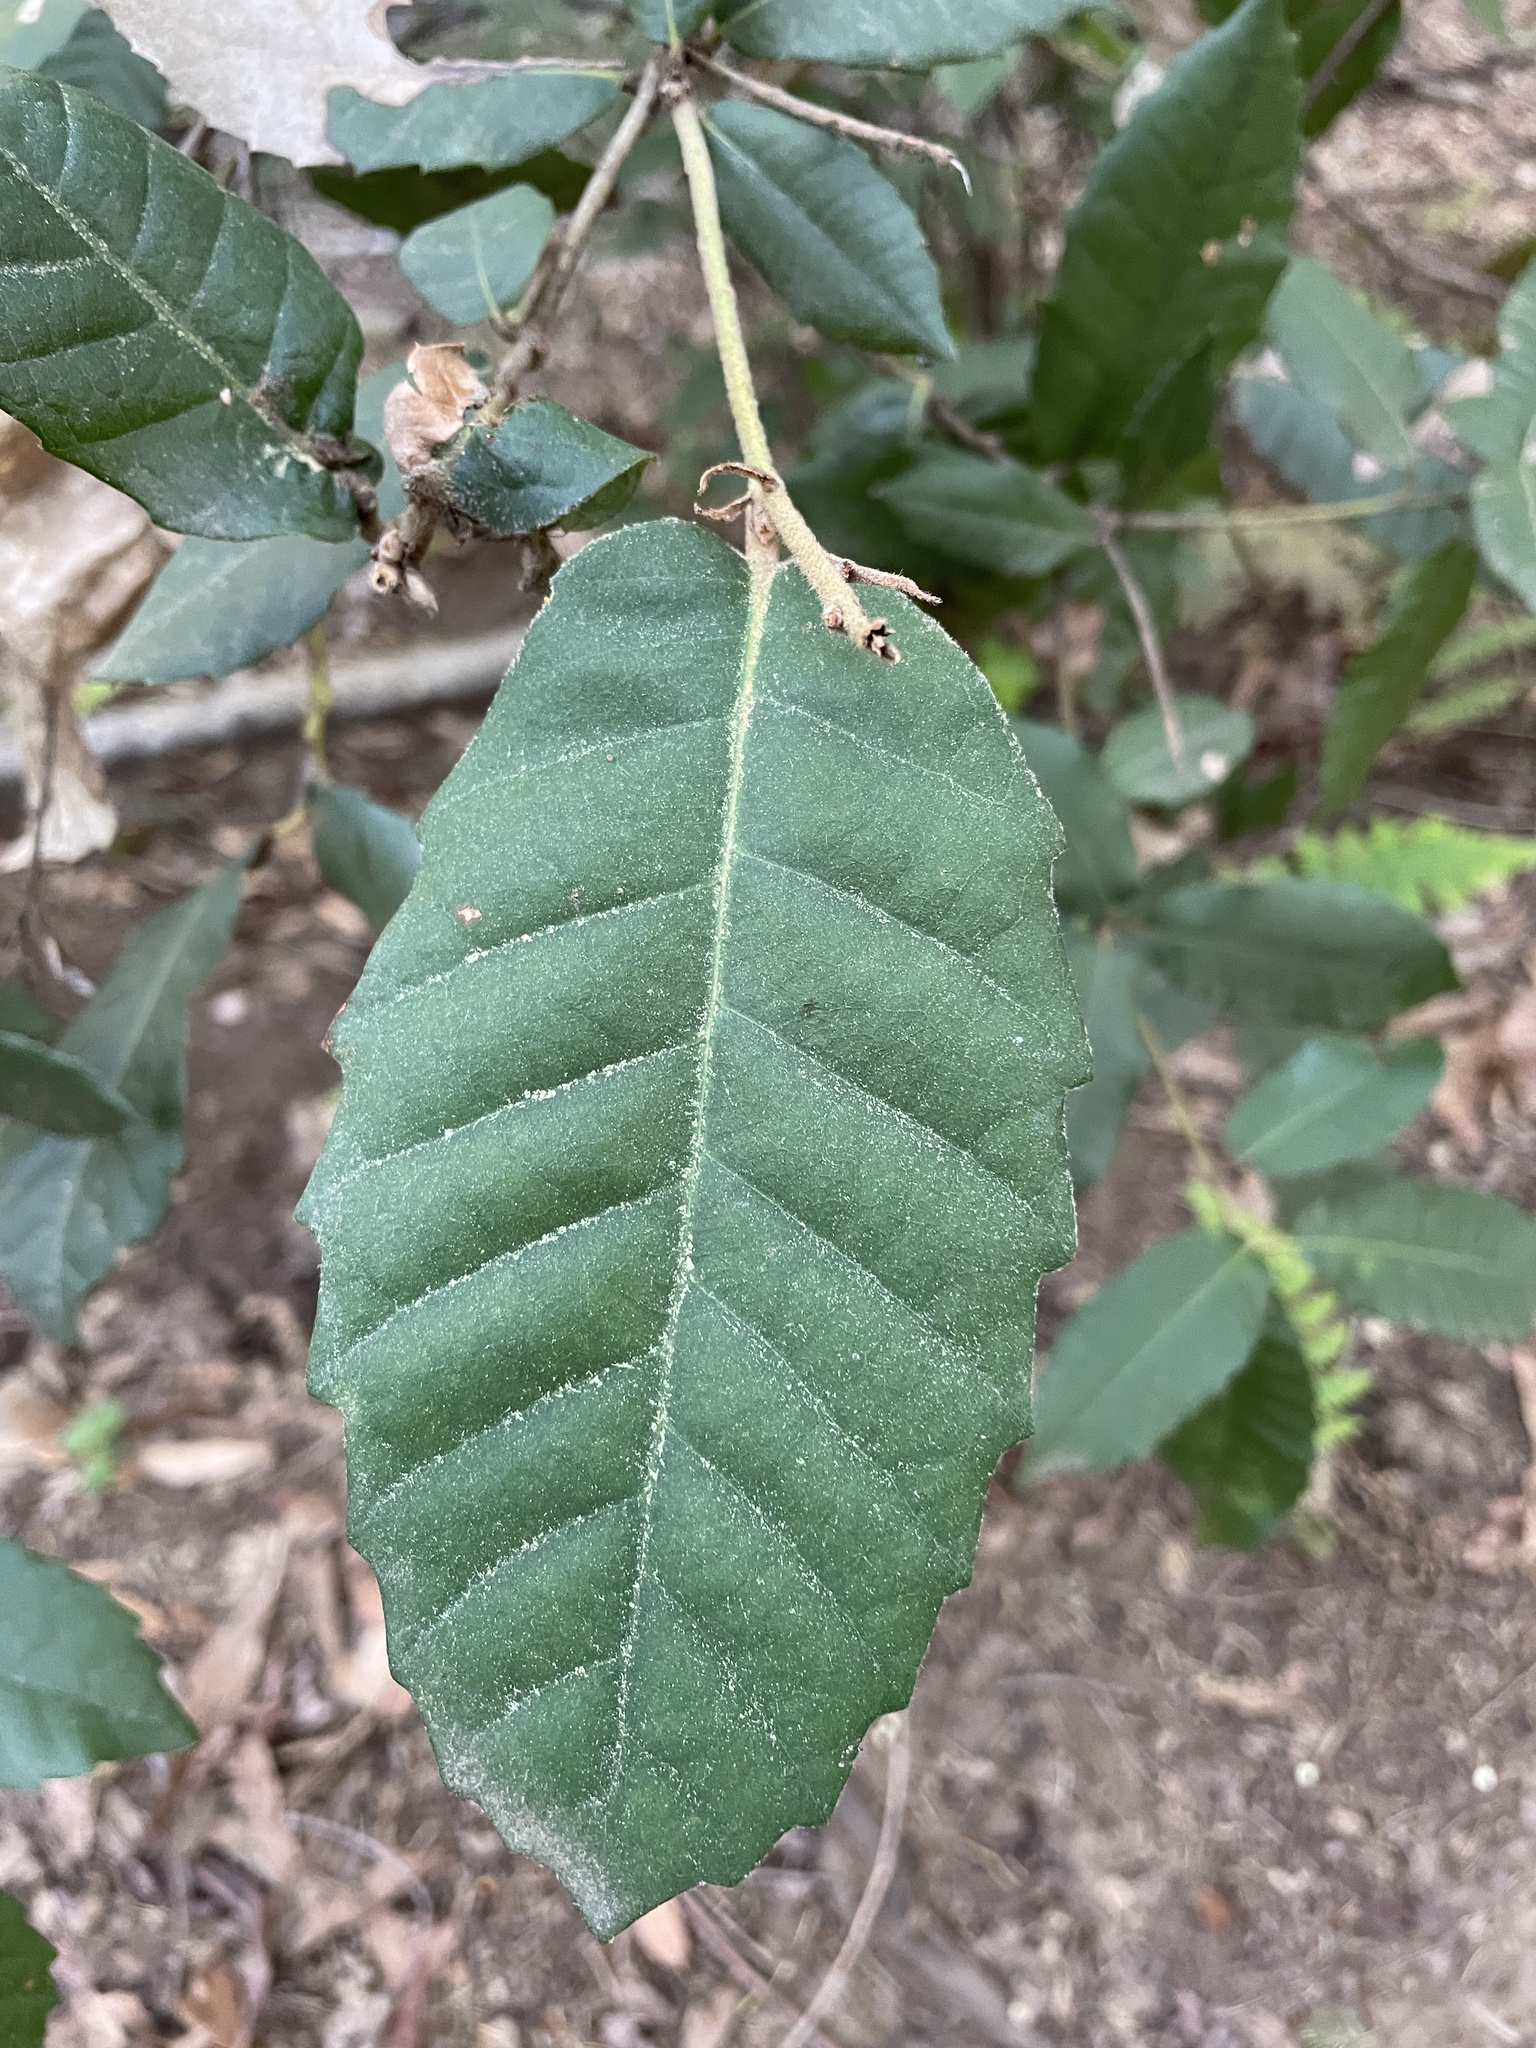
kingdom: Plantae
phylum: Tracheophyta
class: Magnoliopsida
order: Fagales
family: Fagaceae
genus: Notholithocarpus
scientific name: Notholithocarpus densiflorus
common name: Tan bark oak
